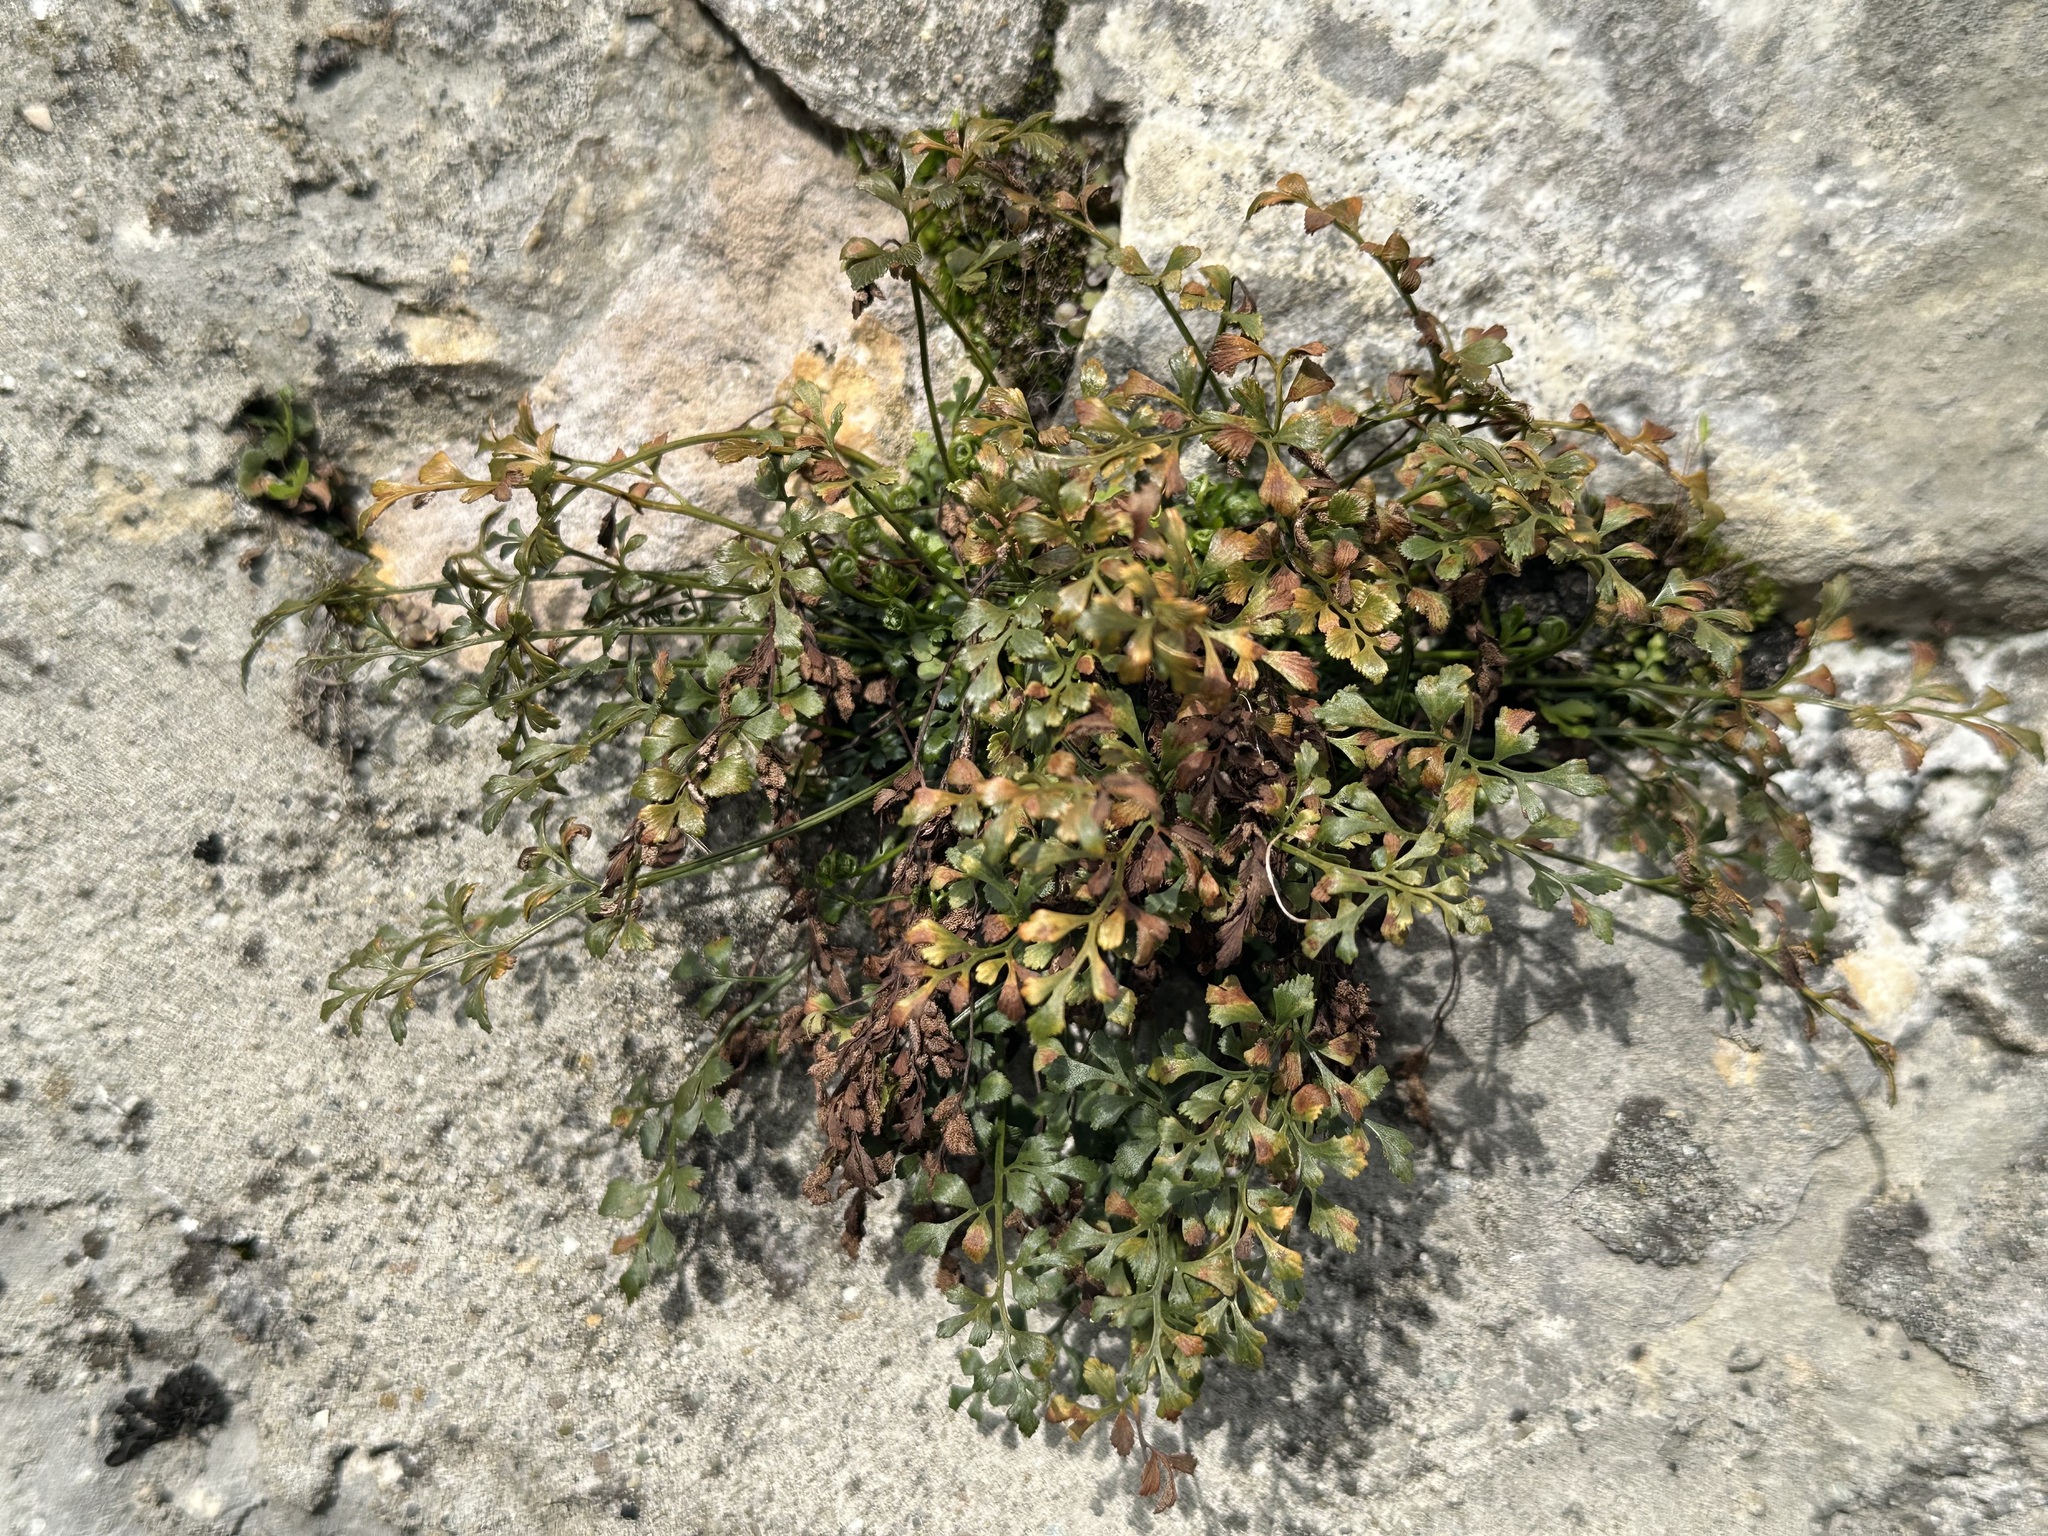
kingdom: Plantae
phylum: Tracheophyta
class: Polypodiopsida
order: Polypodiales
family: Aspleniaceae
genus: Asplenium
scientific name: Asplenium ruta-muraria
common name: Wall-rue
